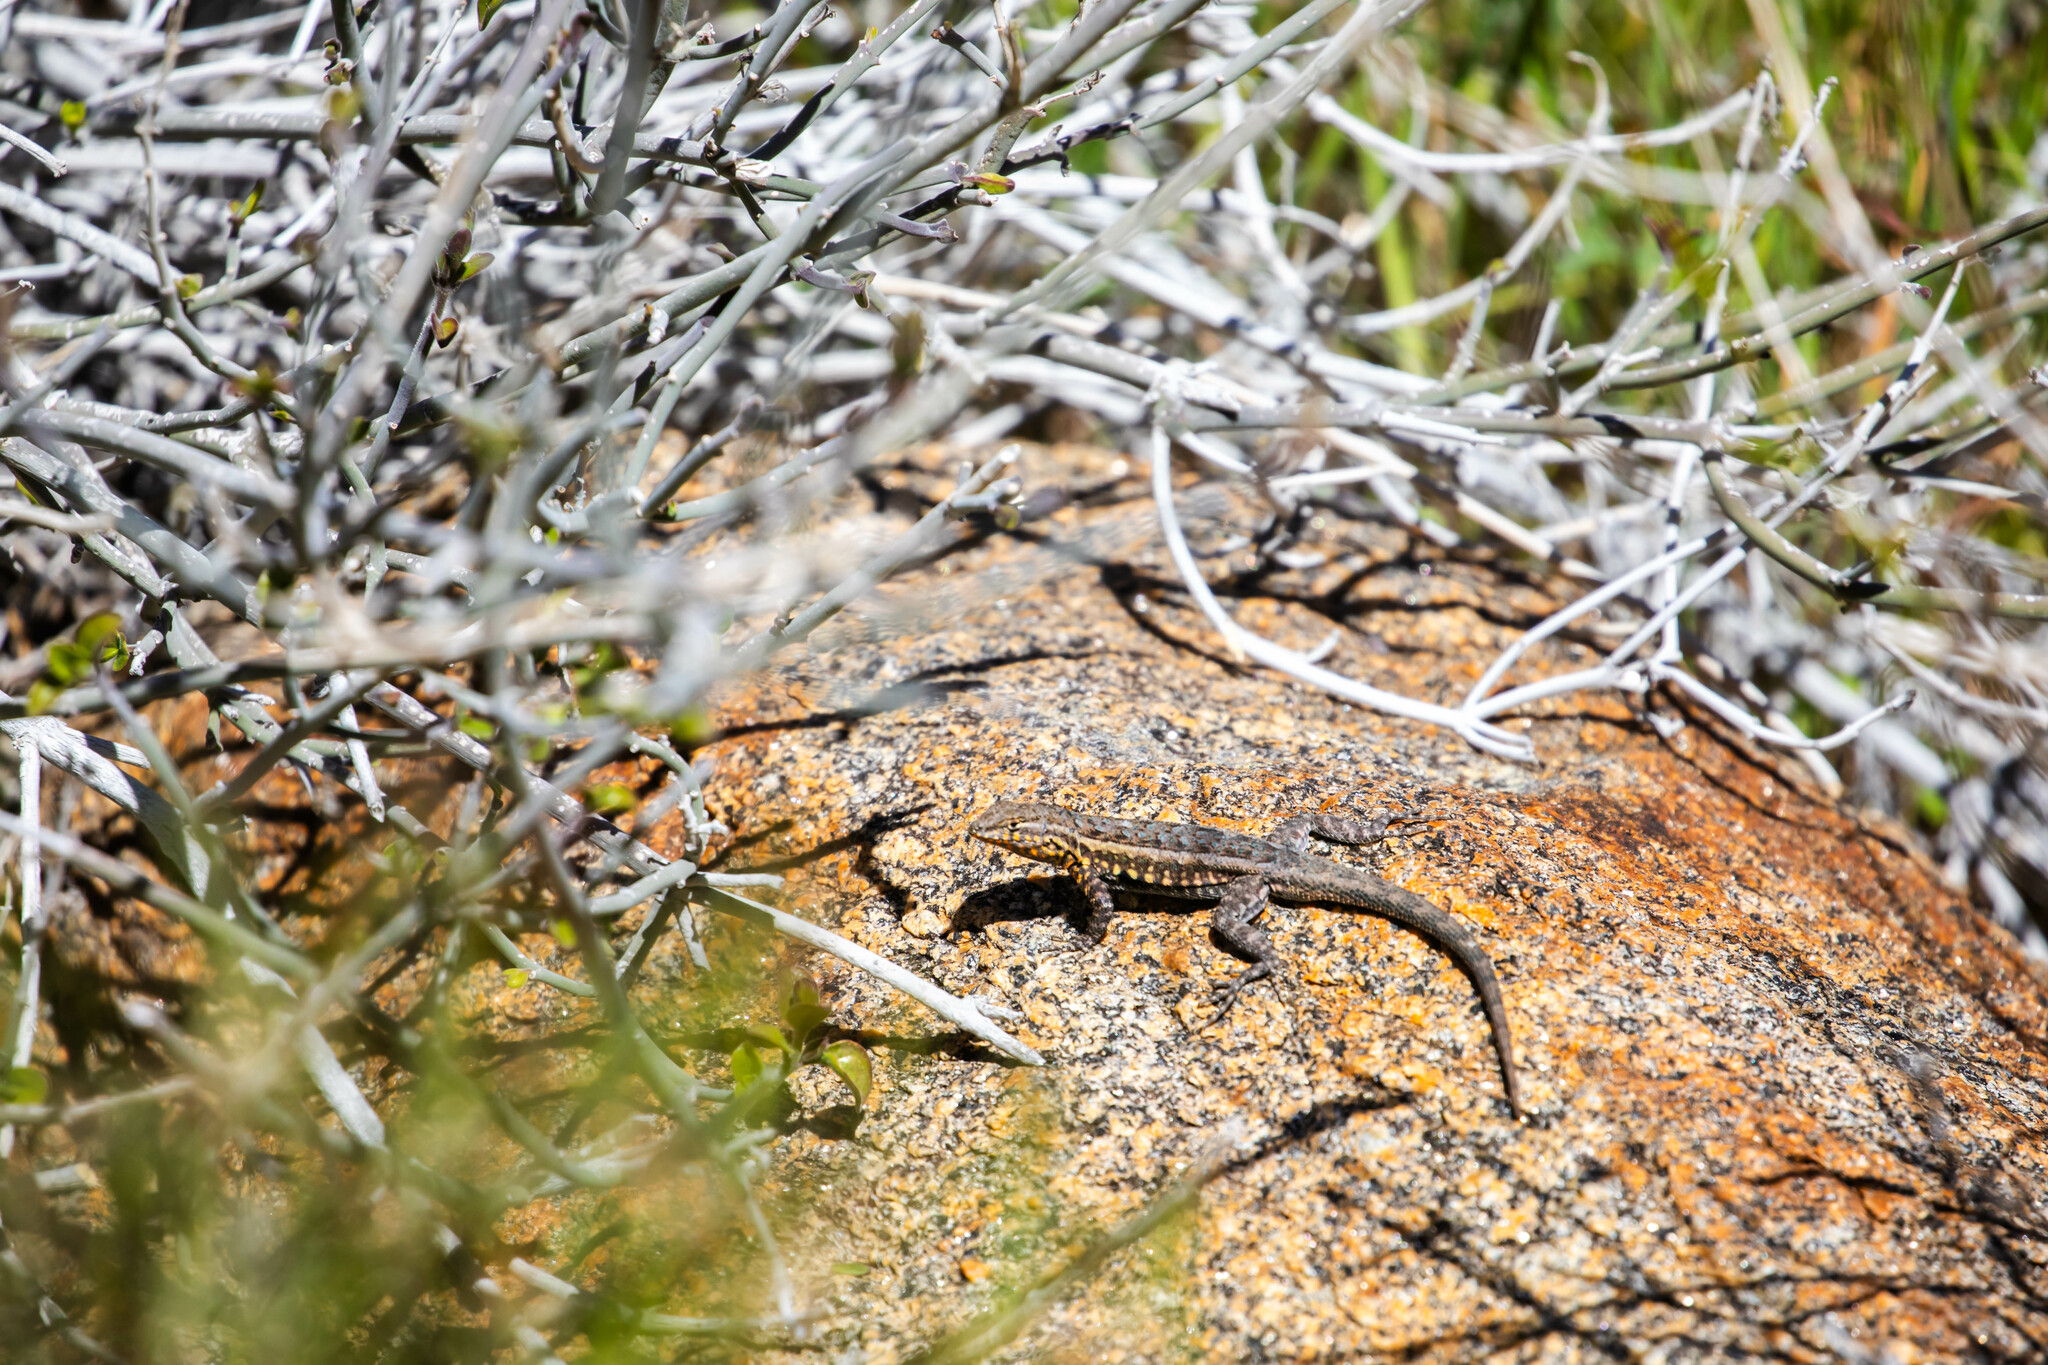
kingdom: Animalia
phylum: Chordata
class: Squamata
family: Phrynosomatidae
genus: Uta
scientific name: Uta stansburiana
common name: Side-blotched lizard
